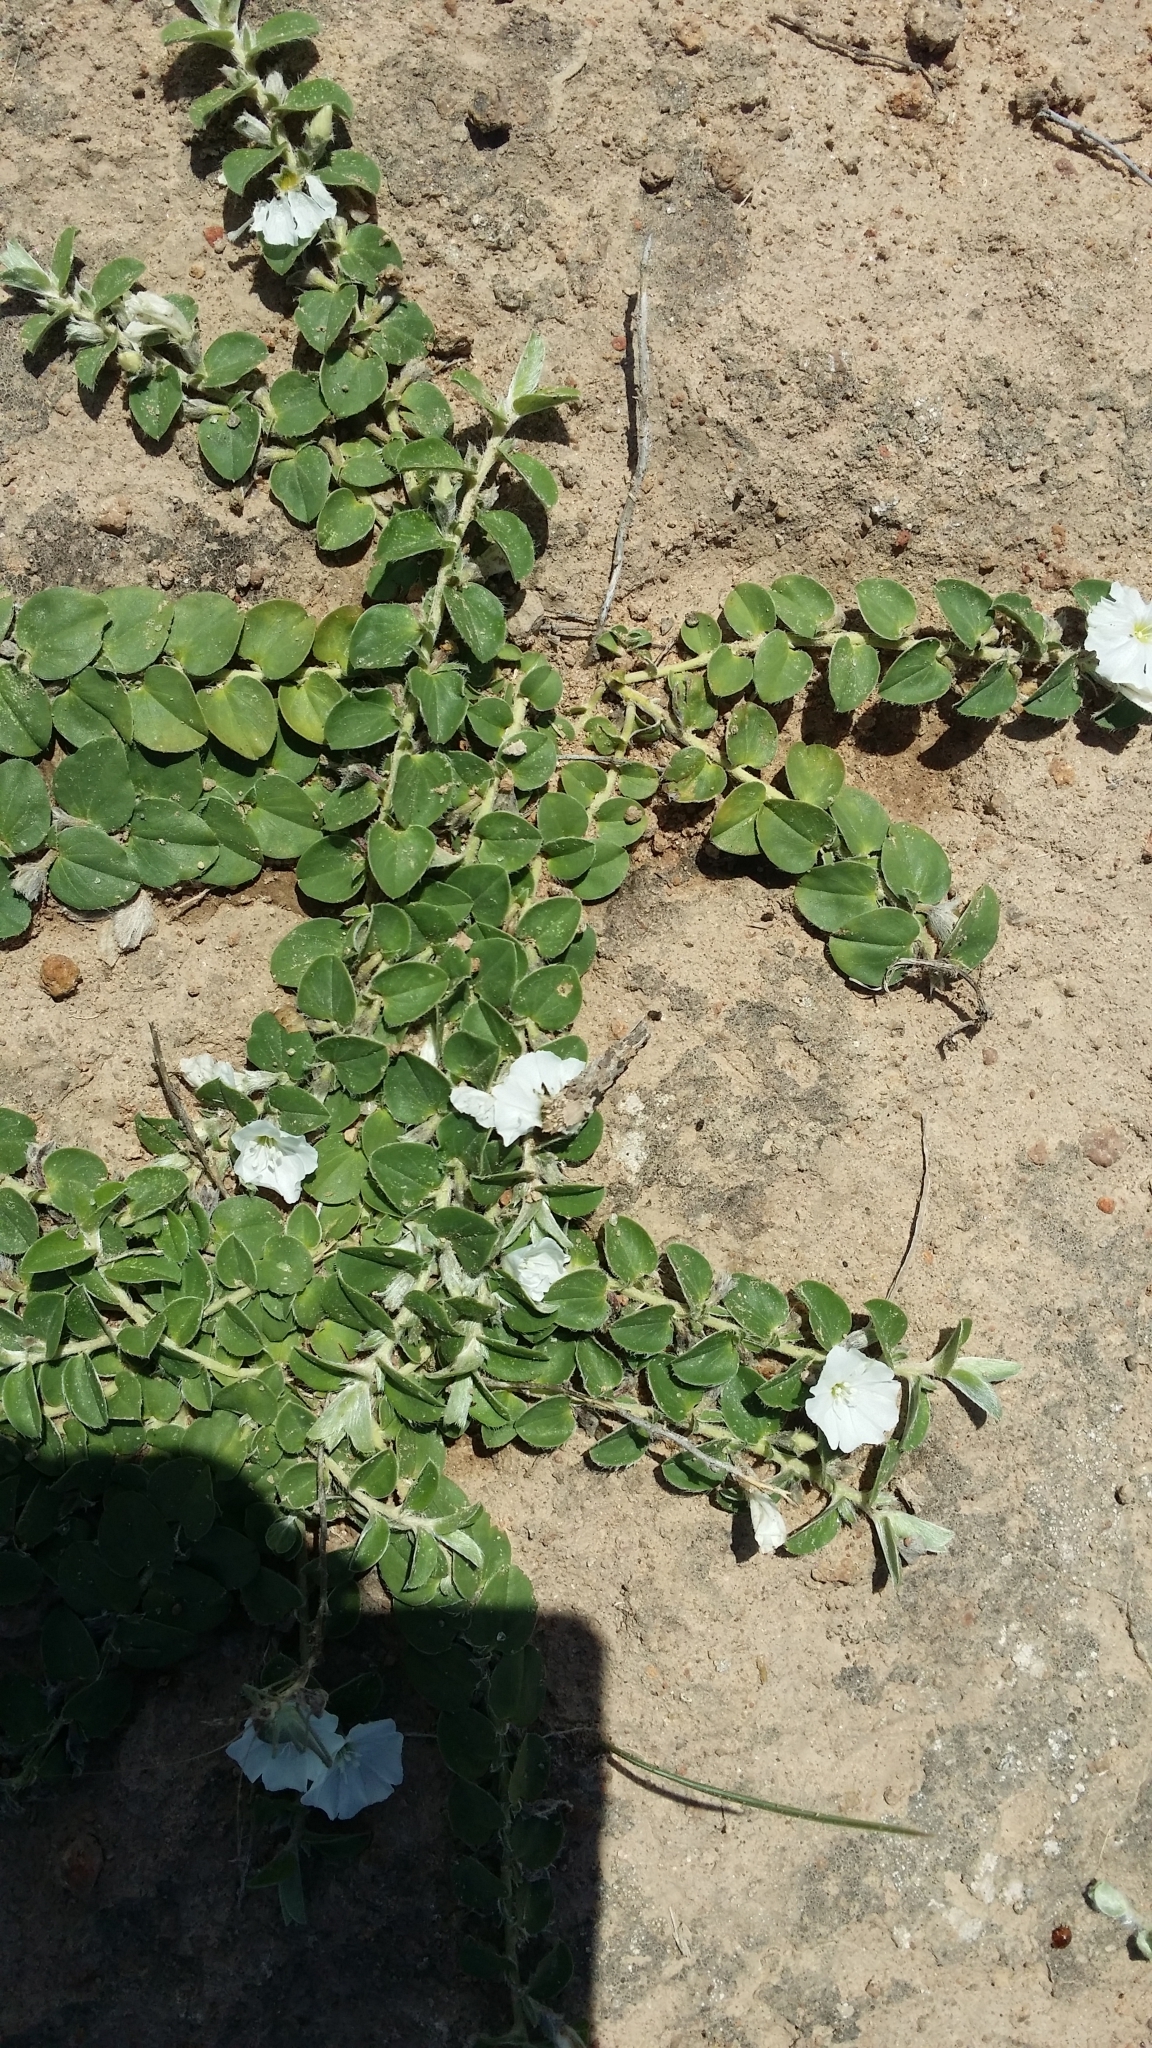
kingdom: Plantae
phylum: Tracheophyta
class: Magnoliopsida
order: Solanales
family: Convolvulaceae
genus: Evolvulus
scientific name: Evolvulus prostratus
